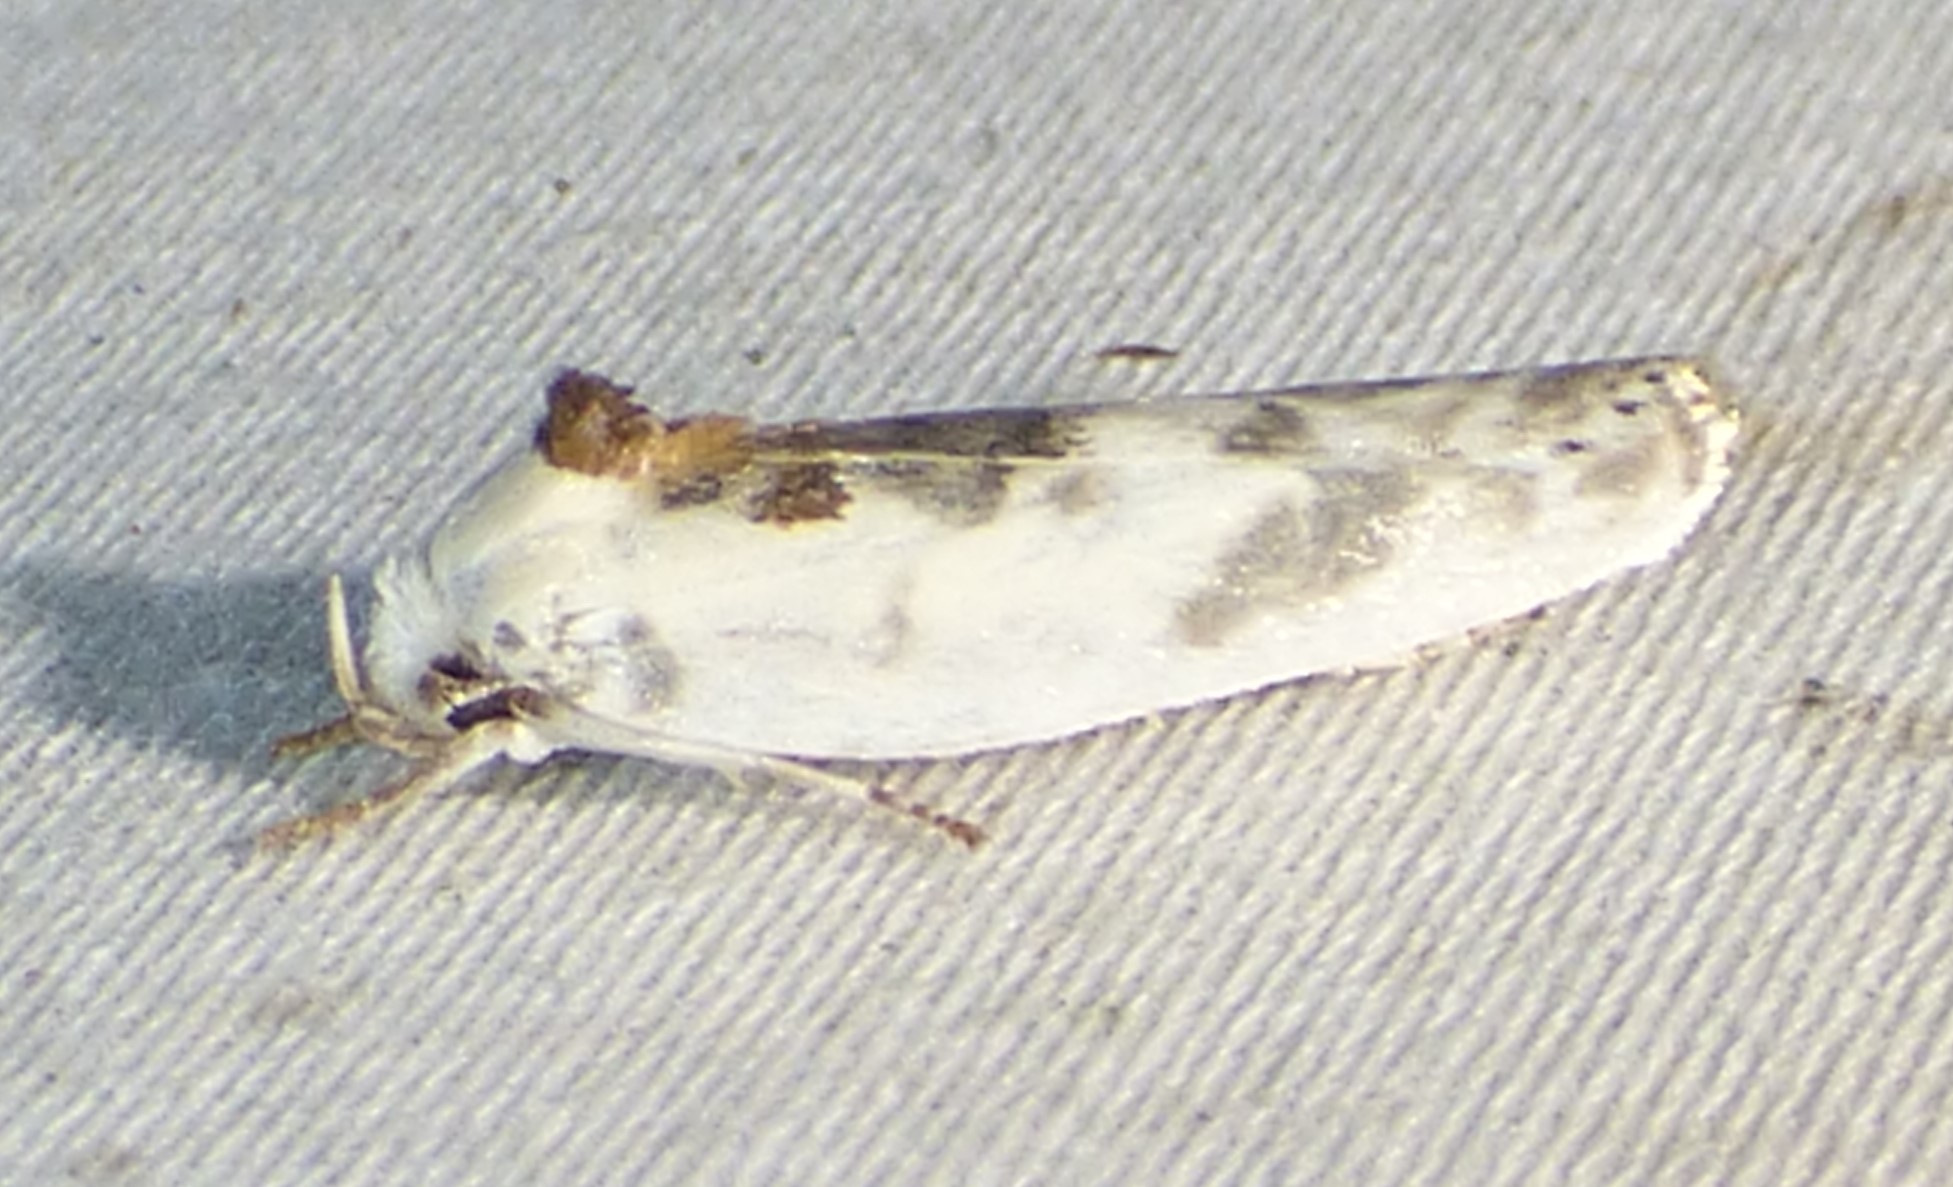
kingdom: Animalia
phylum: Arthropoda
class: Insecta
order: Lepidoptera
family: Depressariidae
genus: Antaeotricha
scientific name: Antaeotricha leucillana
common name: Pale gray bird-dropping moth
